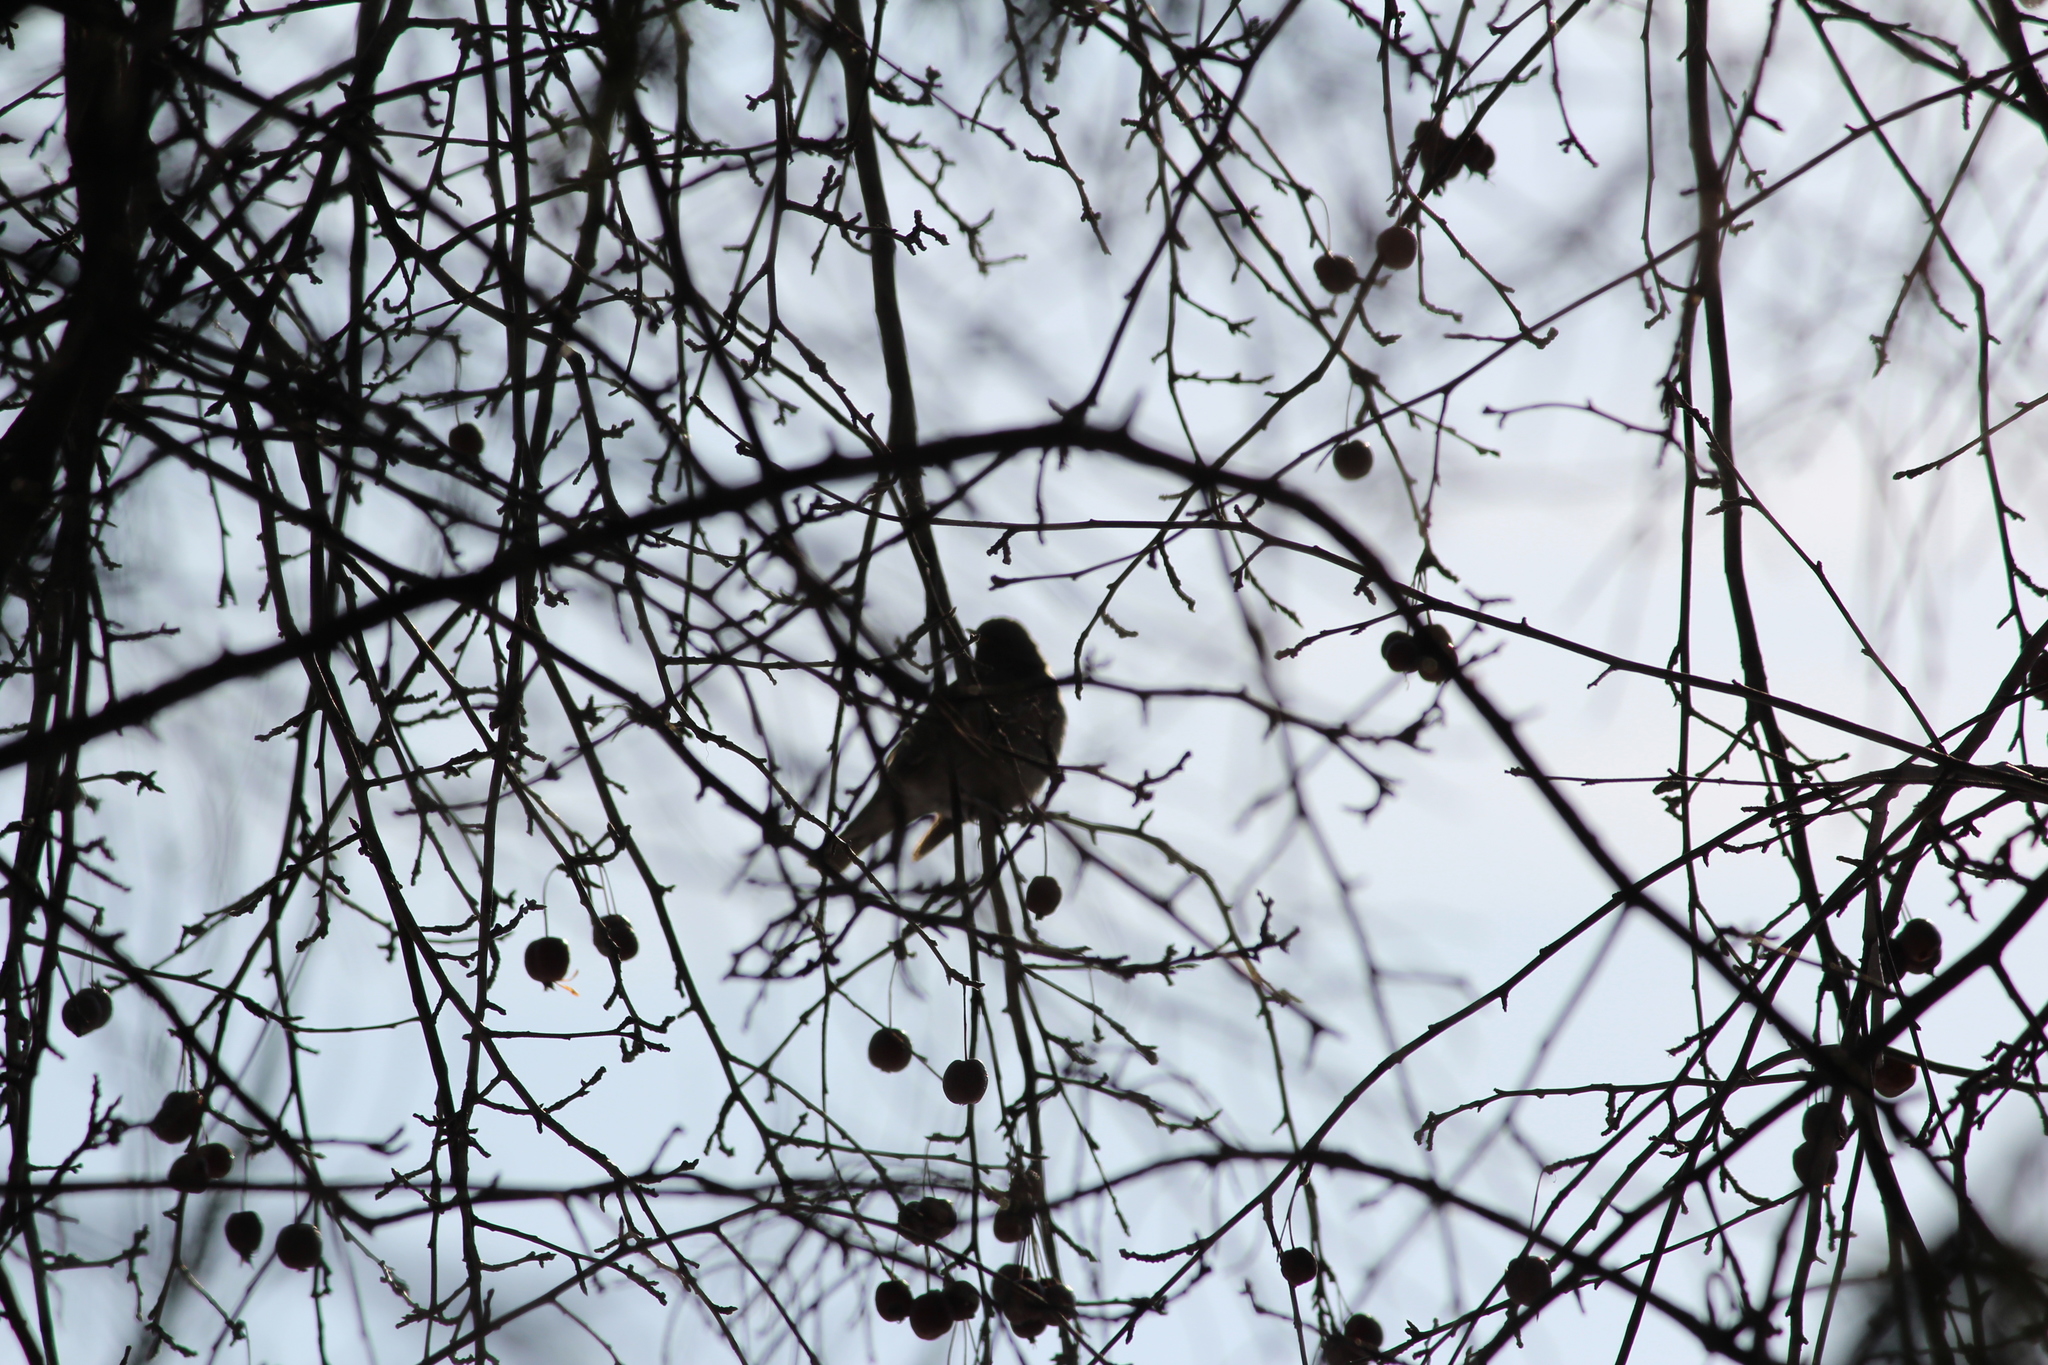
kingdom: Animalia
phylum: Chordata
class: Aves
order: Passeriformes
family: Turdidae
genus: Turdus
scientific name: Turdus atrogularis
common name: Black-throated thrush
